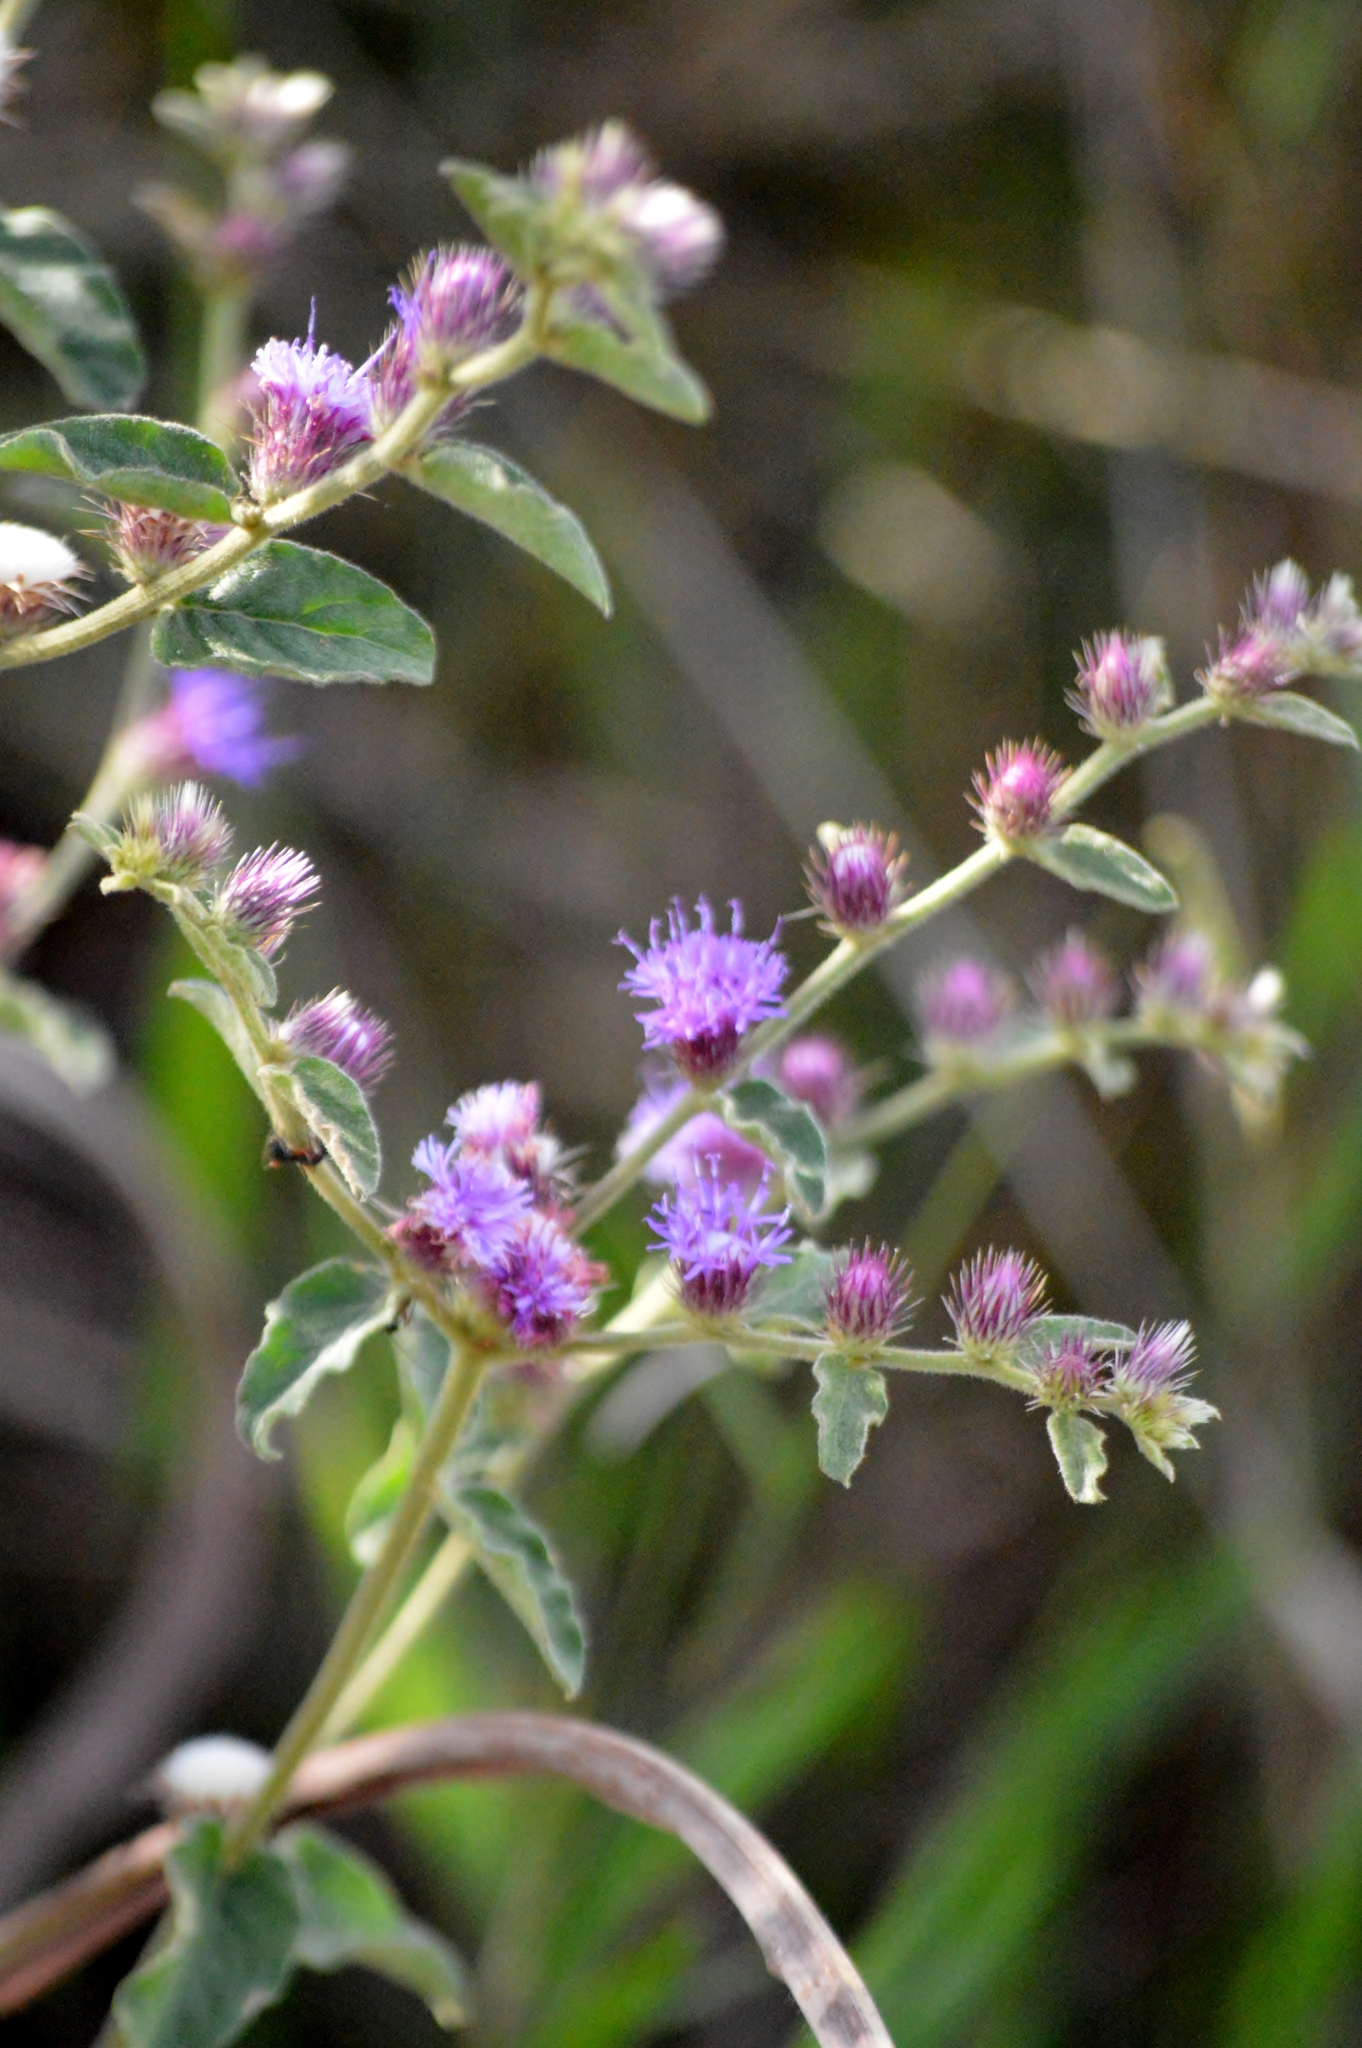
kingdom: Plantae
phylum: Tracheophyta
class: Magnoliopsida
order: Asterales
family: Asteraceae
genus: Lepidaploa
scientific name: Lepidaploa aurea
